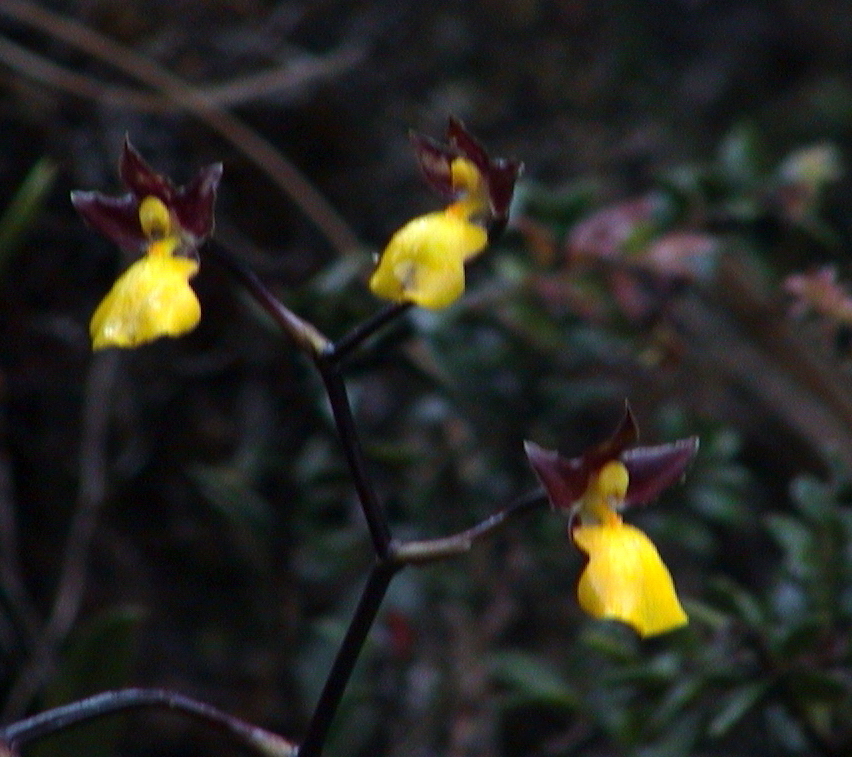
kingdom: Plantae
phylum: Tracheophyta
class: Liliopsida
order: Asparagales
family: Orchidaceae
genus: Cyrtochilum
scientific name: Cyrtochilum aureum
